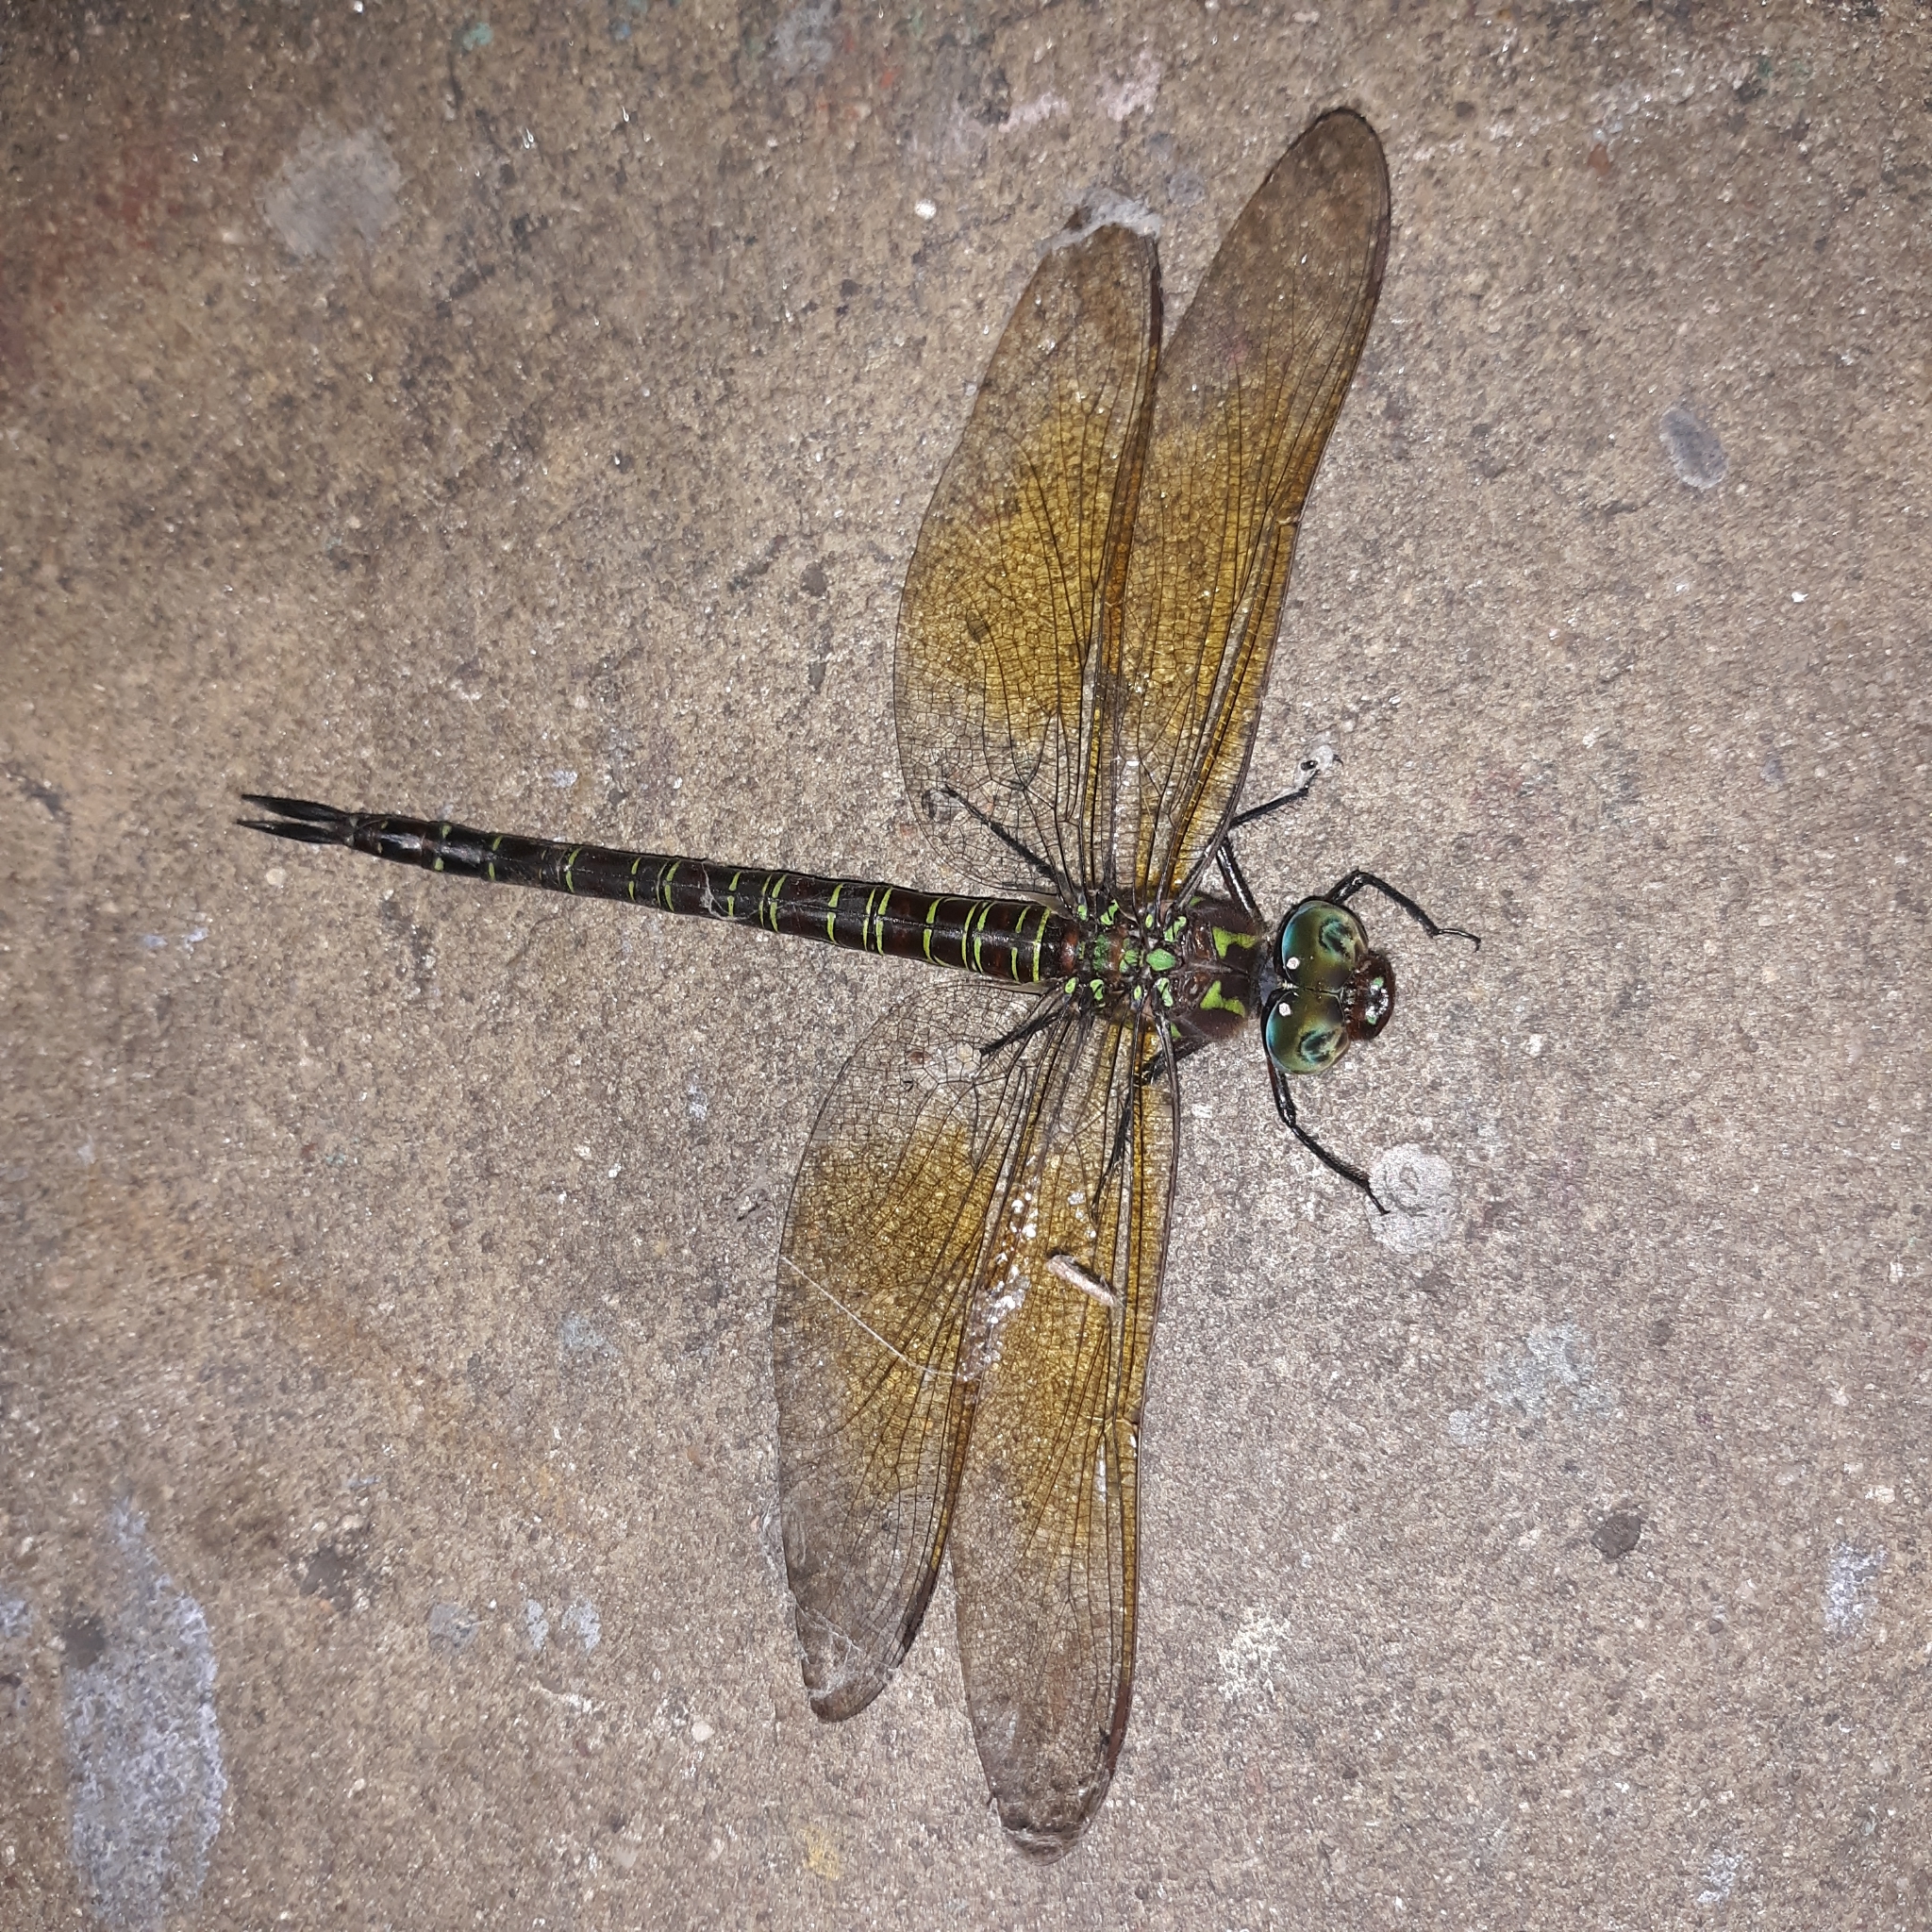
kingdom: Animalia
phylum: Arthropoda
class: Insecta
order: Odonata
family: Aeshnidae
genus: Epiaeschna
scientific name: Epiaeschna heros
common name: Swamp darner
